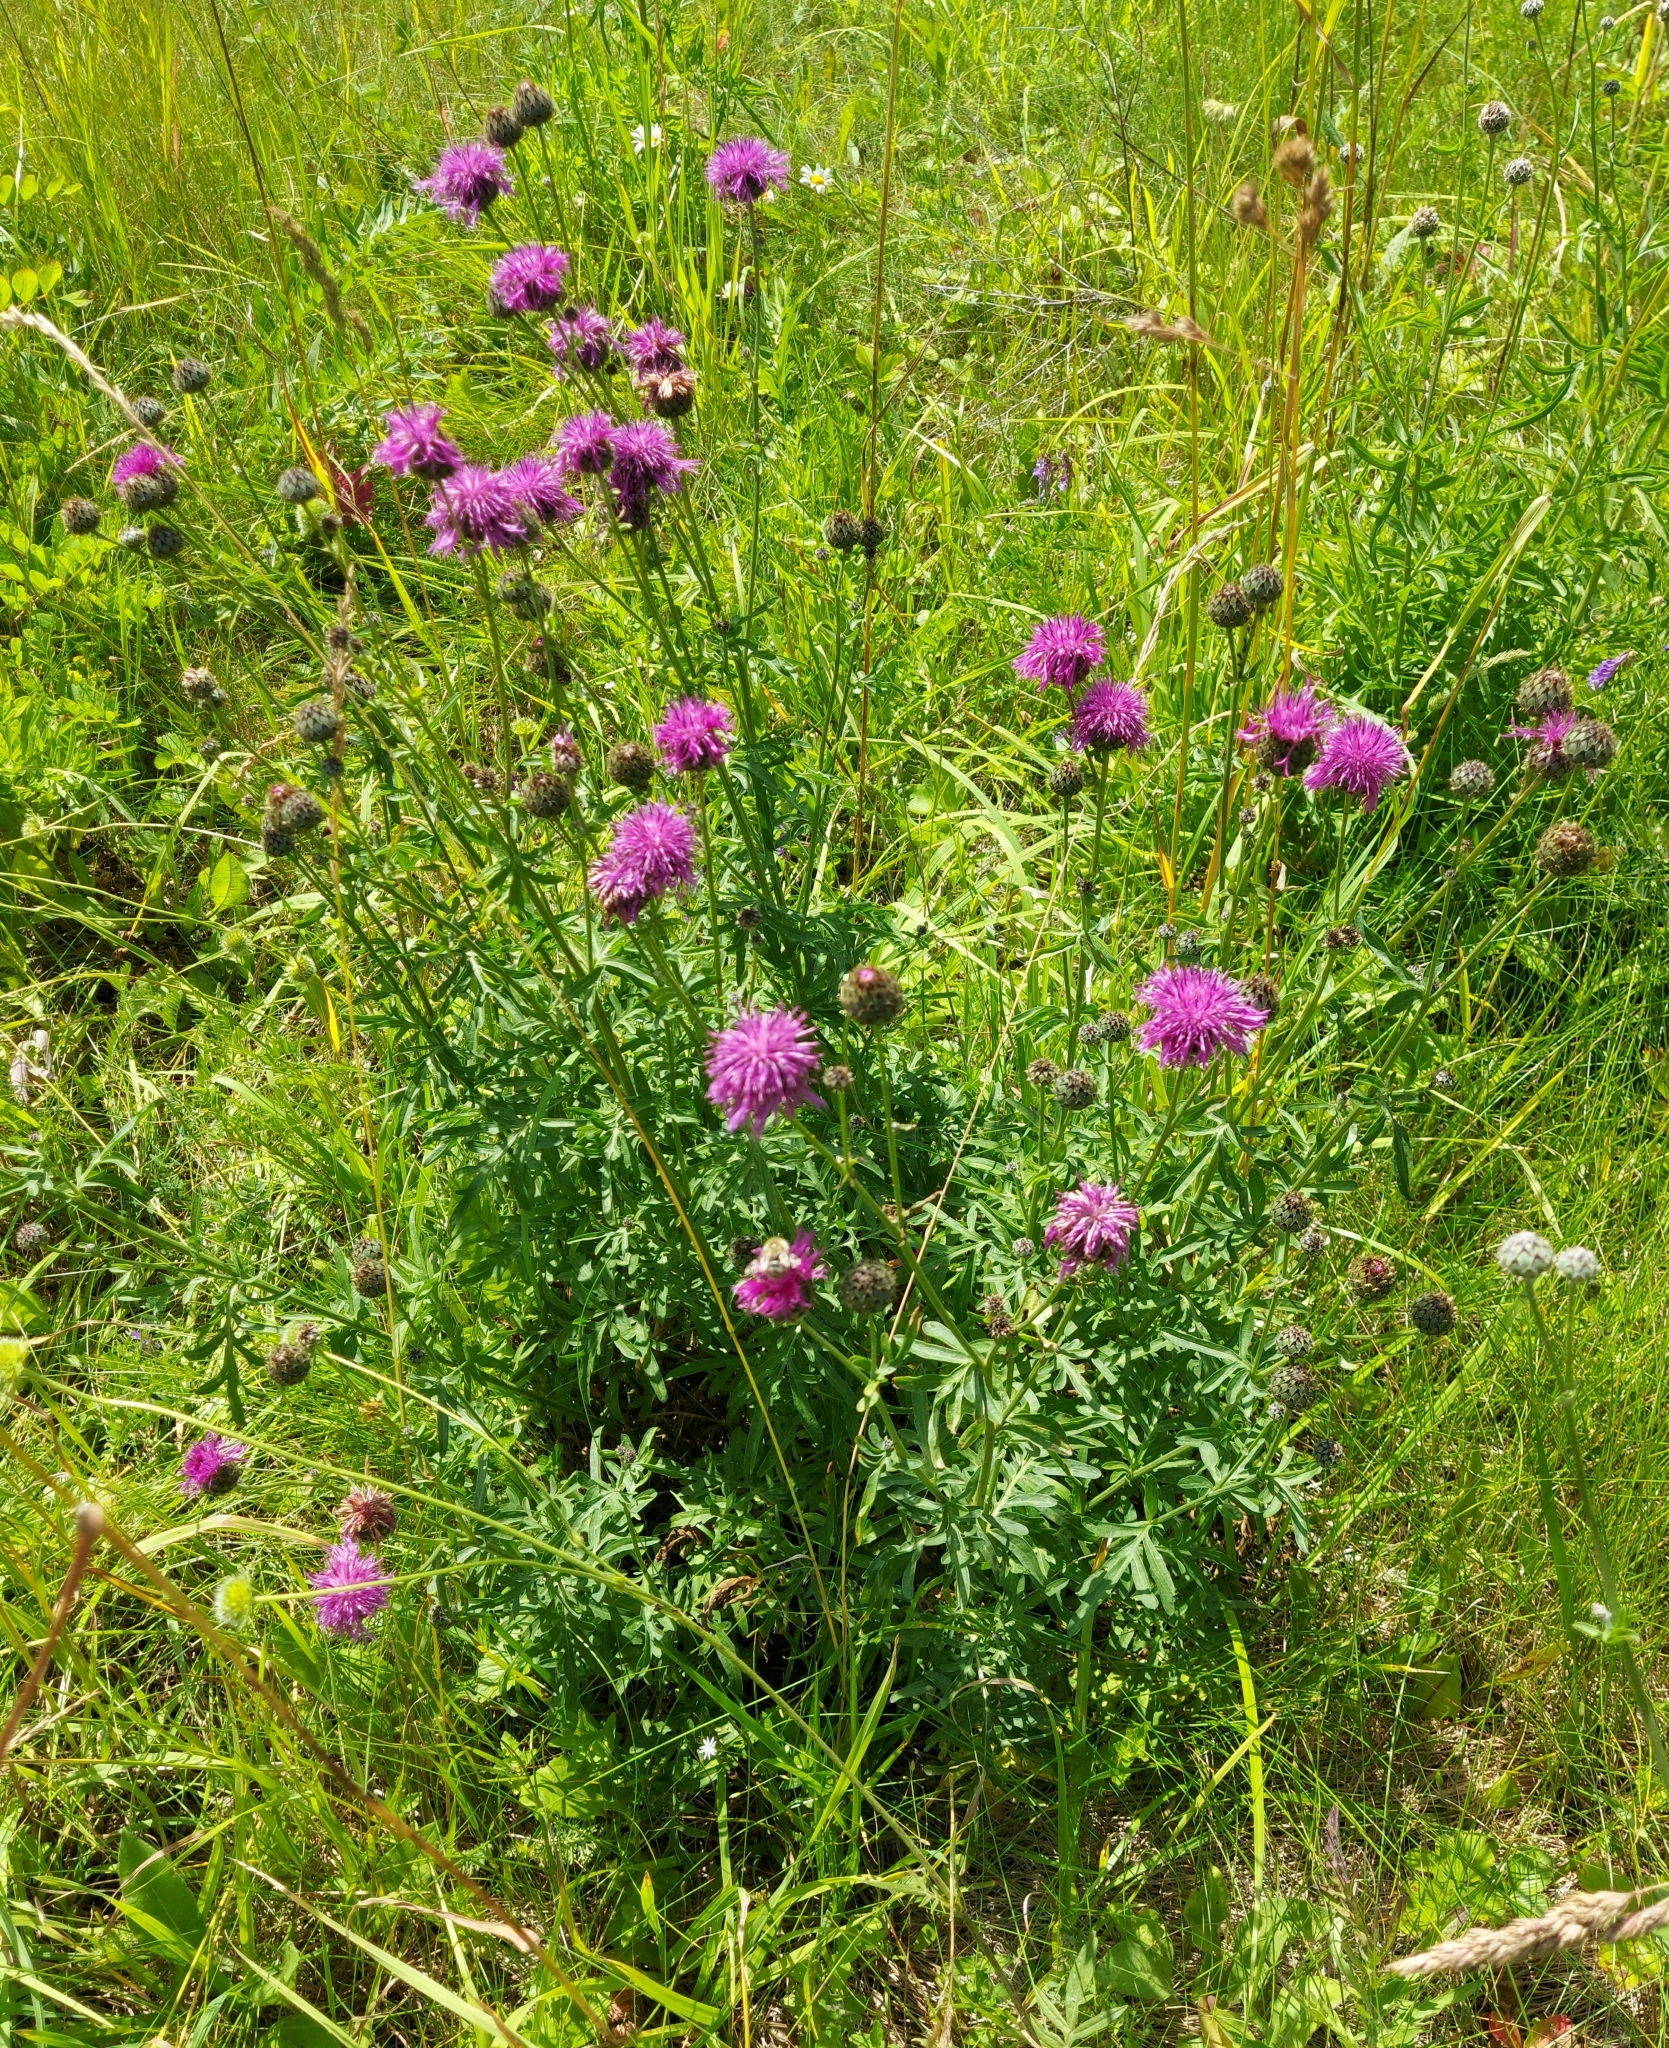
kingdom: Plantae
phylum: Tracheophyta
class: Magnoliopsida
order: Asterales
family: Asteraceae
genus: Centaurea
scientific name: Centaurea scabiosa
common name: Greater knapweed
